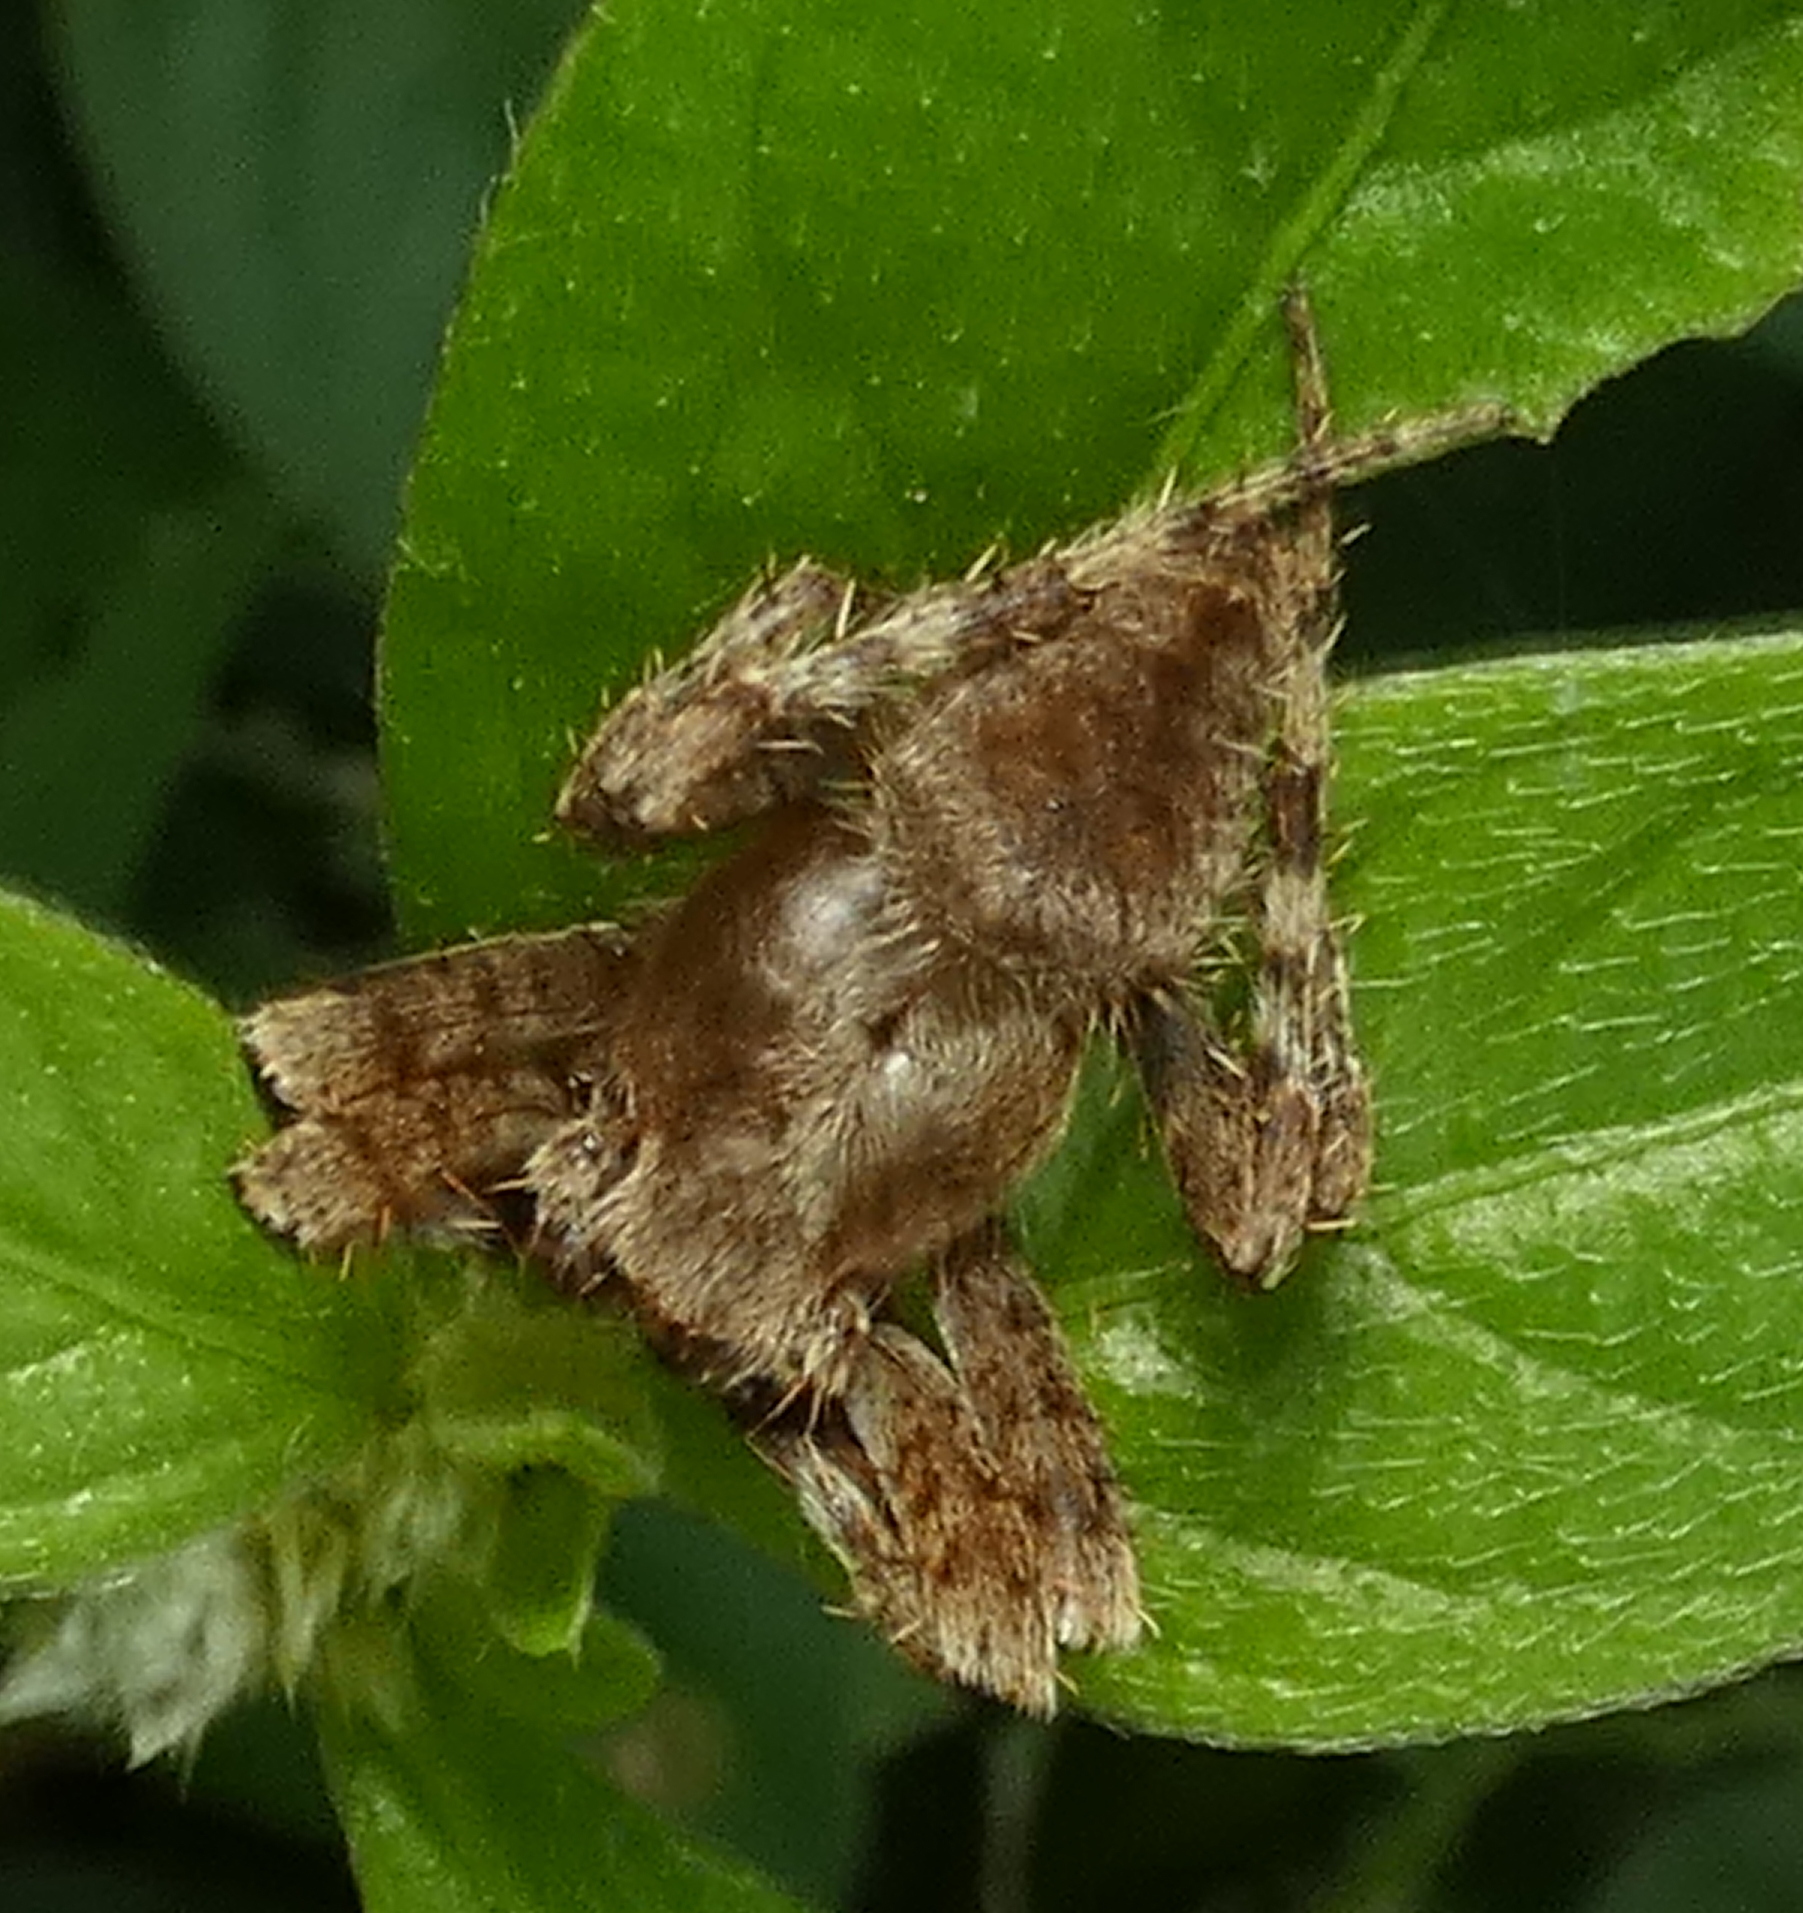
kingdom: Animalia
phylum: Arthropoda
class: Arachnida
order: Araneae
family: Araneidae
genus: Eriophora
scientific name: Eriophora edax
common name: Orb weavers
